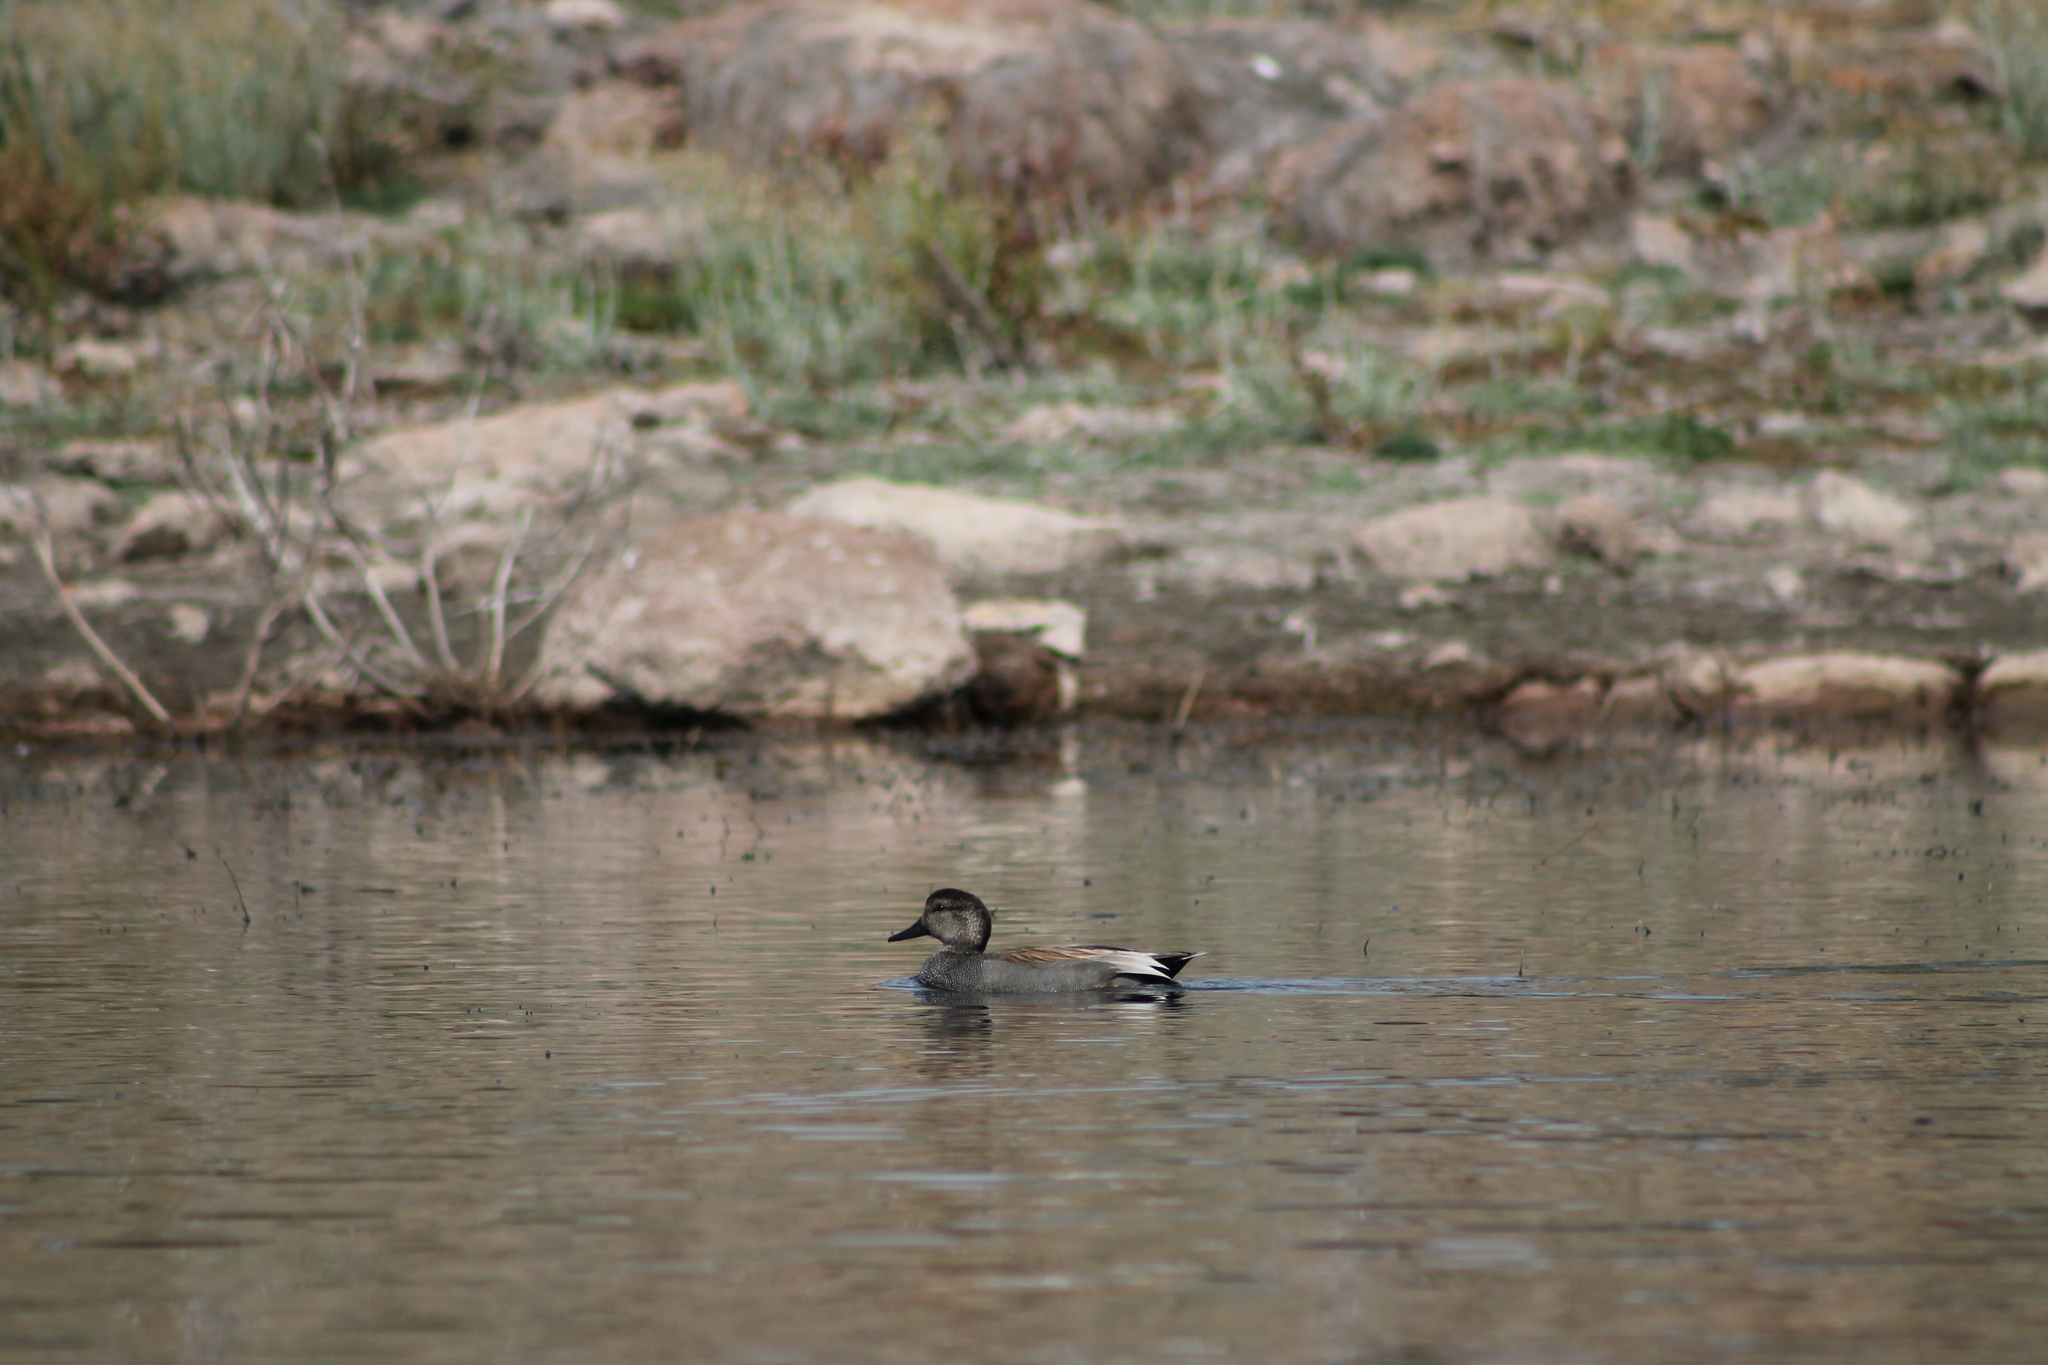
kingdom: Animalia
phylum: Chordata
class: Aves
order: Anseriformes
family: Anatidae
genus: Mareca
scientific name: Mareca strepera
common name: Gadwall
